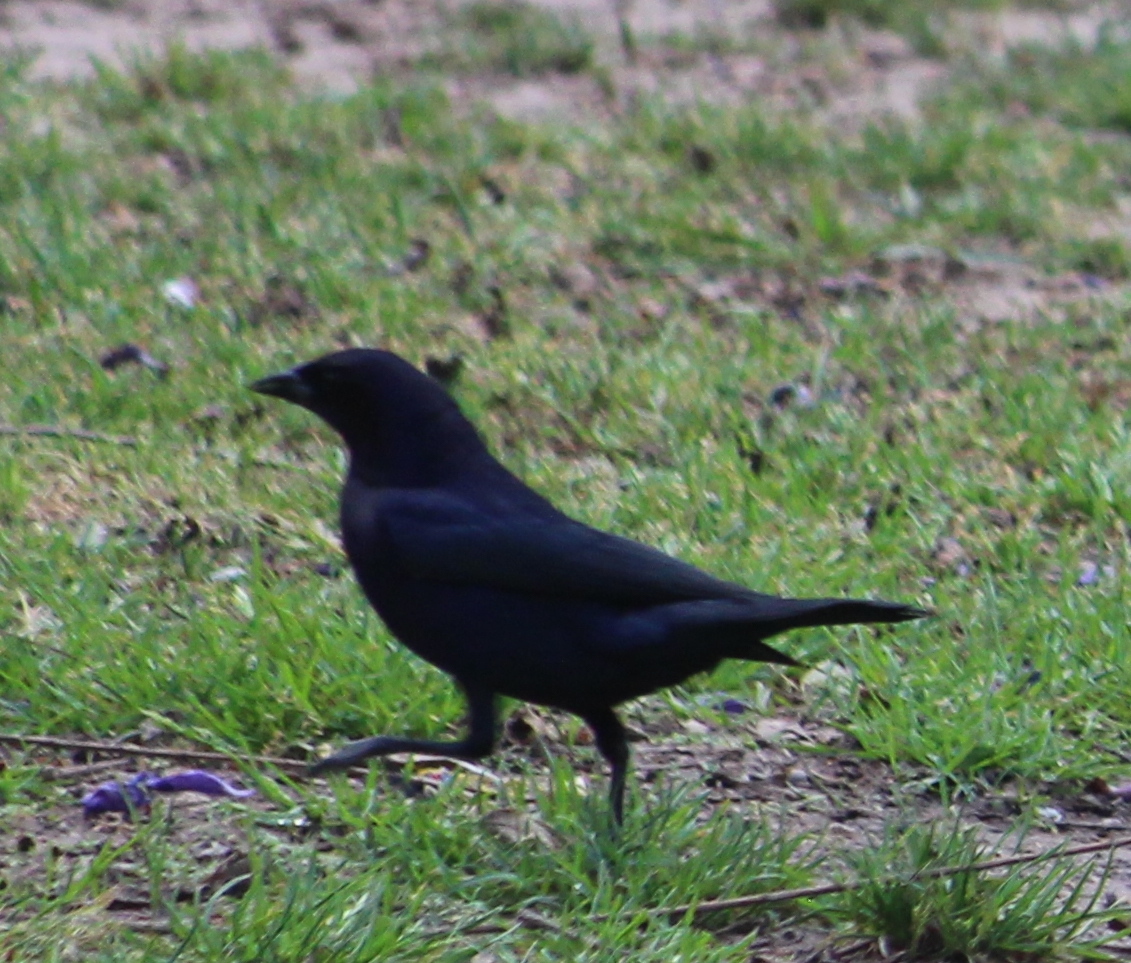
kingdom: Animalia
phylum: Chordata
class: Aves
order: Passeriformes
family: Icteridae
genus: Molothrus
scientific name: Molothrus bonariensis
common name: Shiny cowbird
